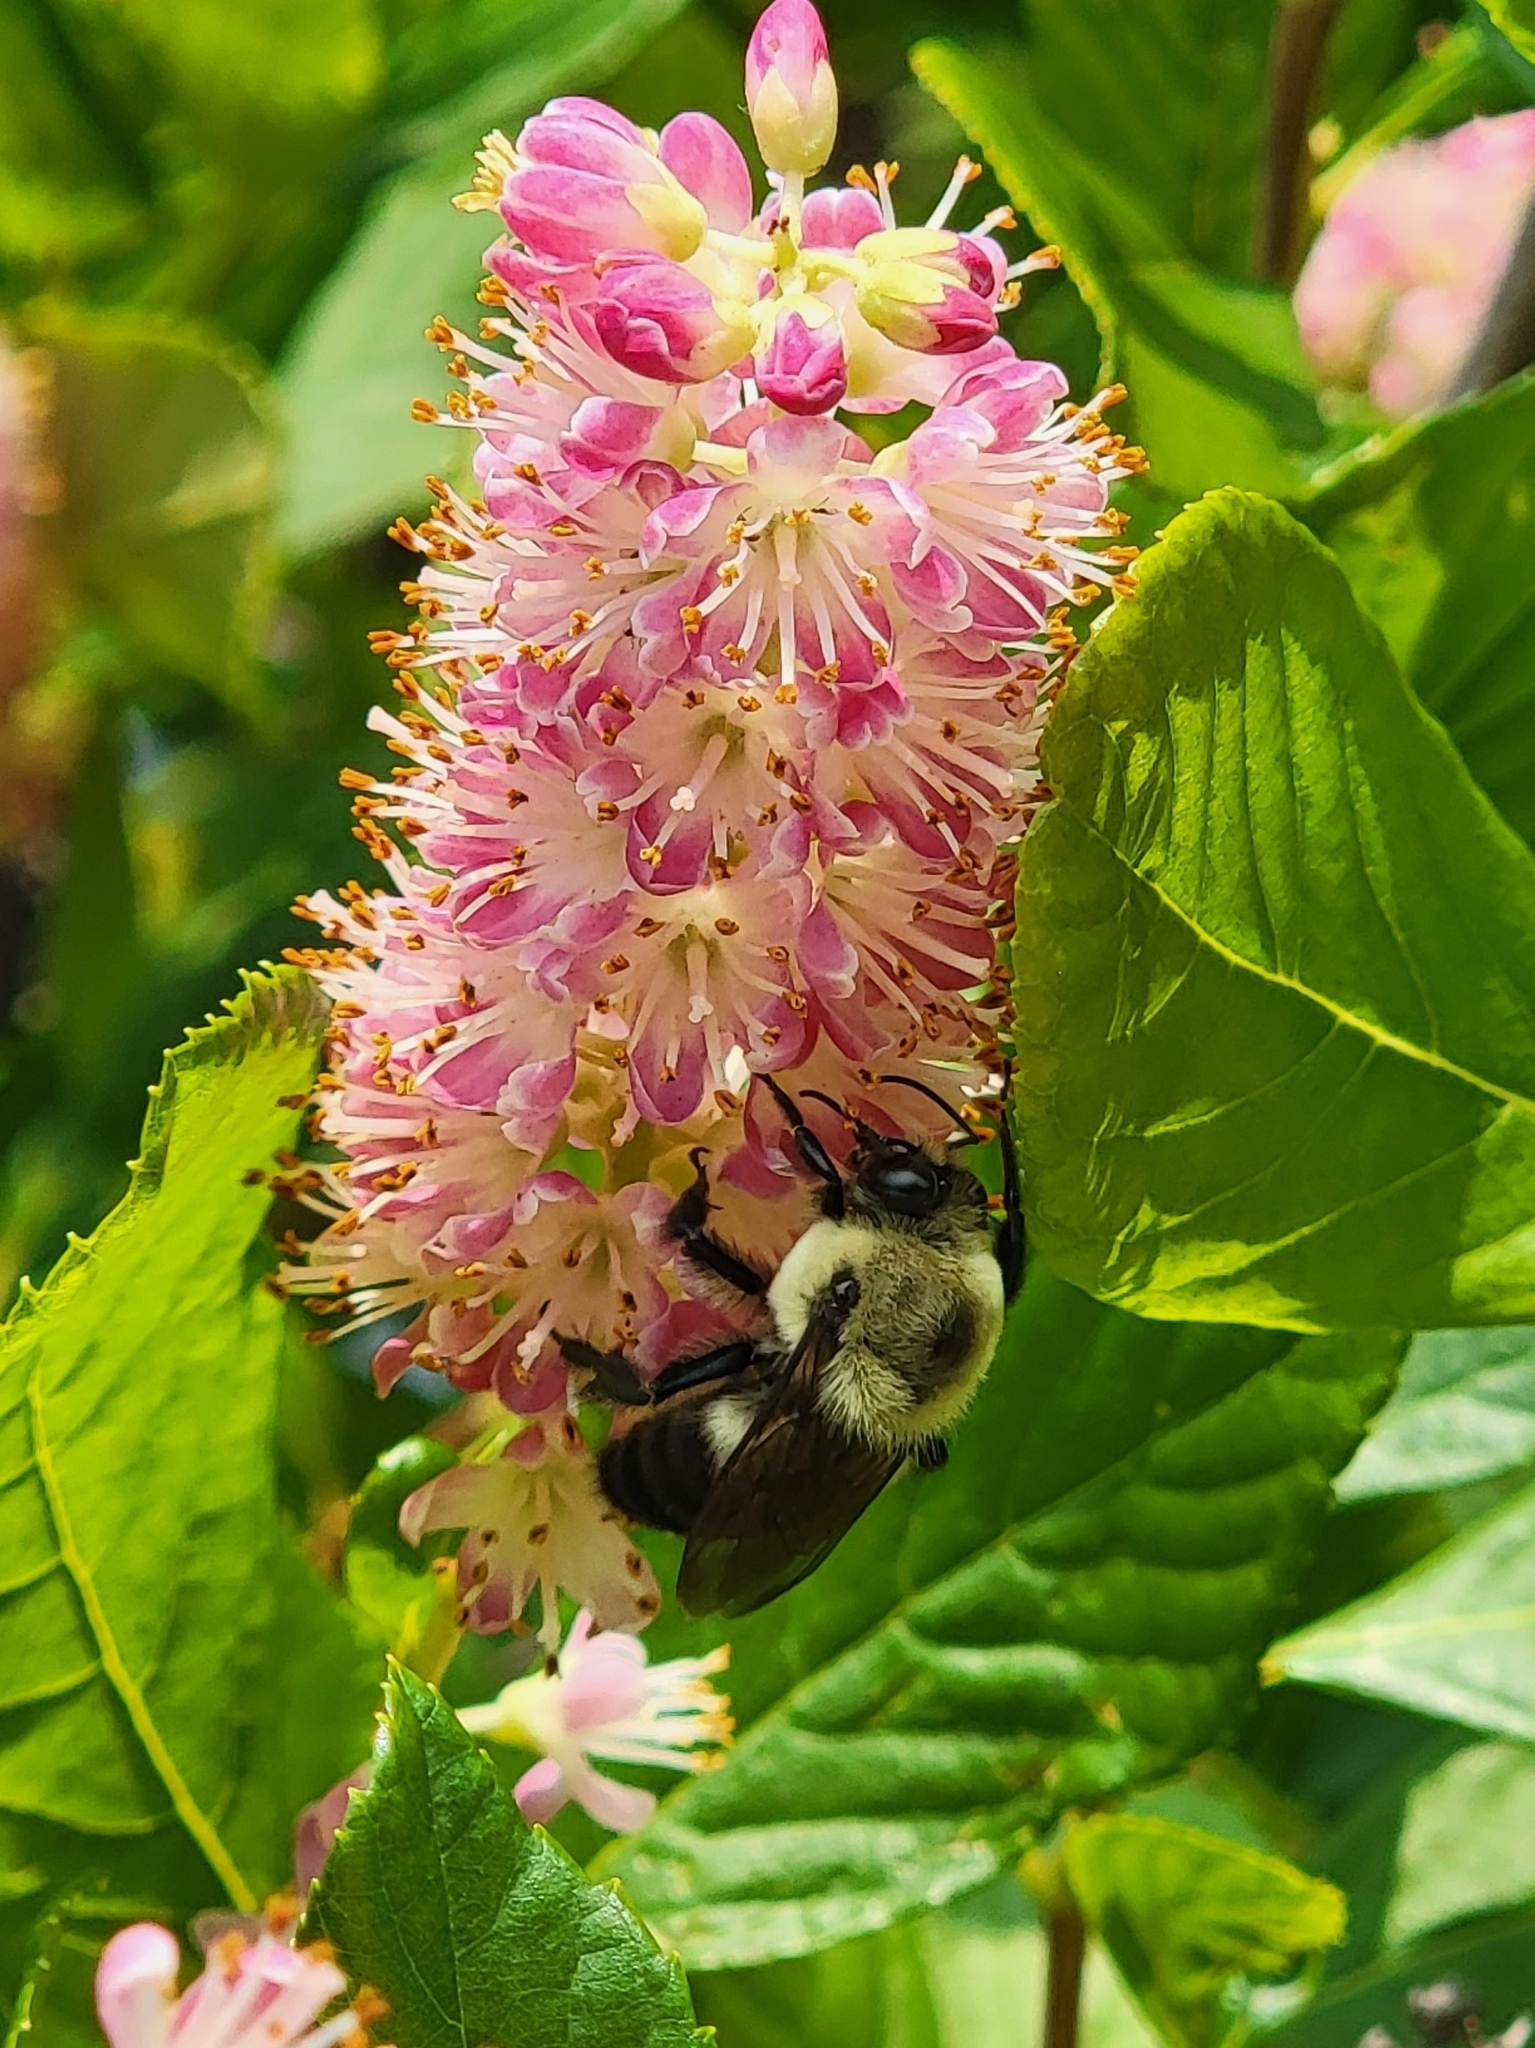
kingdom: Animalia
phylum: Arthropoda
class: Insecta
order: Hymenoptera
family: Apidae
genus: Bombus
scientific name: Bombus griseocollis
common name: Brown-belted bumble bee
